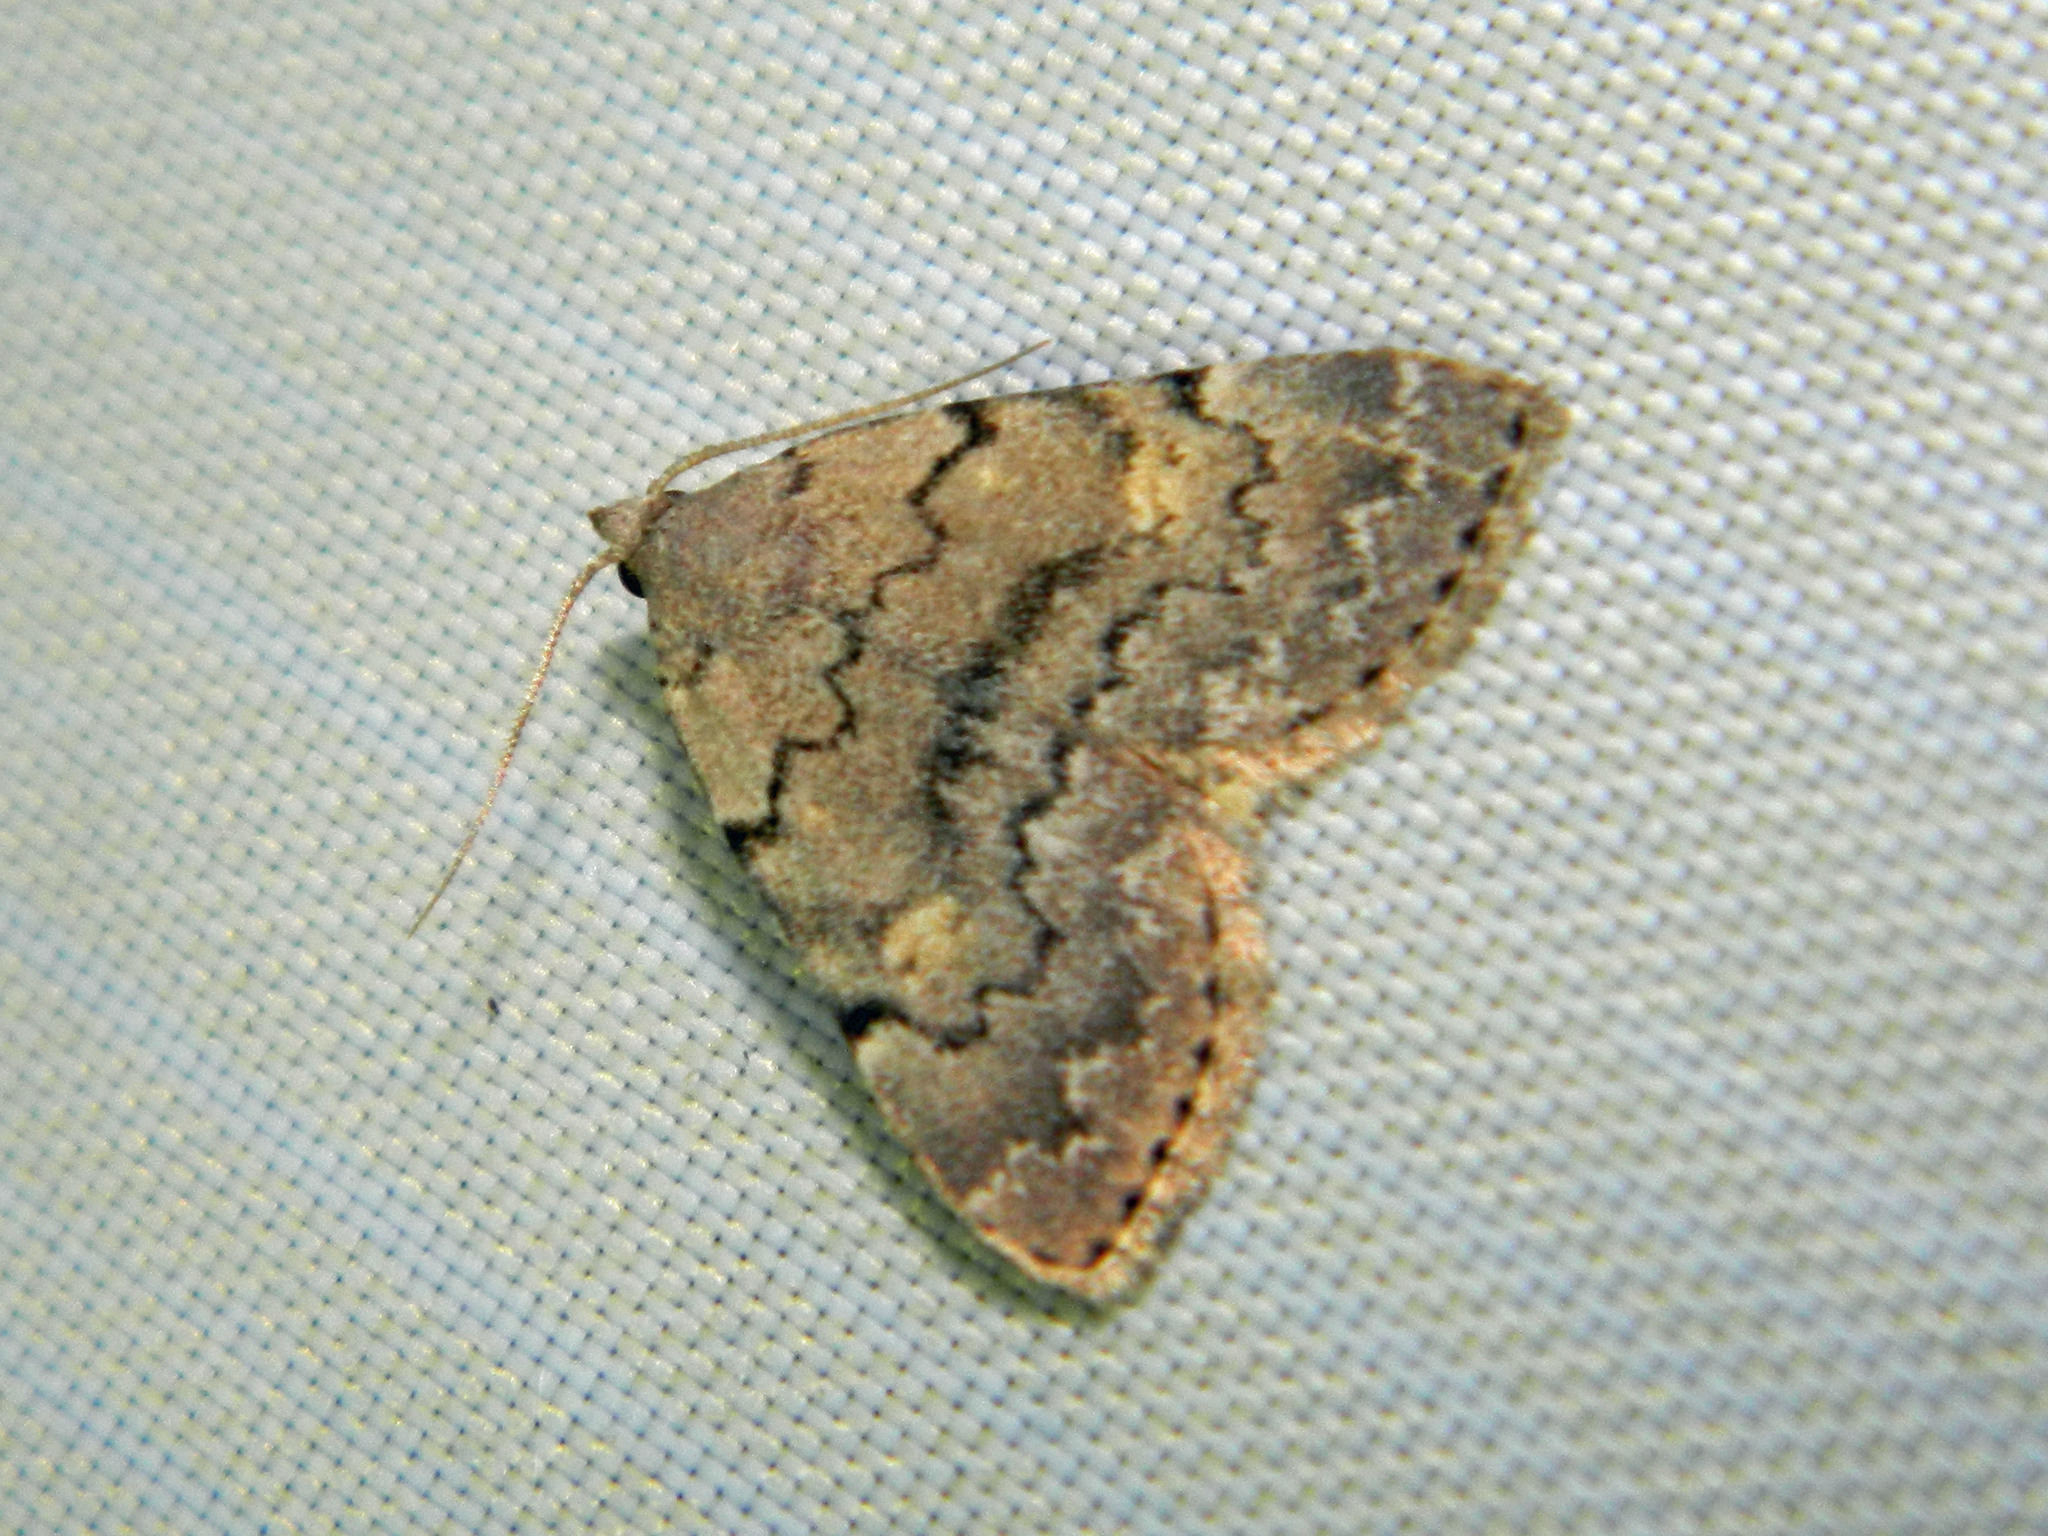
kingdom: Animalia
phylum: Arthropoda
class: Insecta
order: Lepidoptera
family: Erebidae
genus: Idia
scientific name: Idia aemula
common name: Common idia moth
